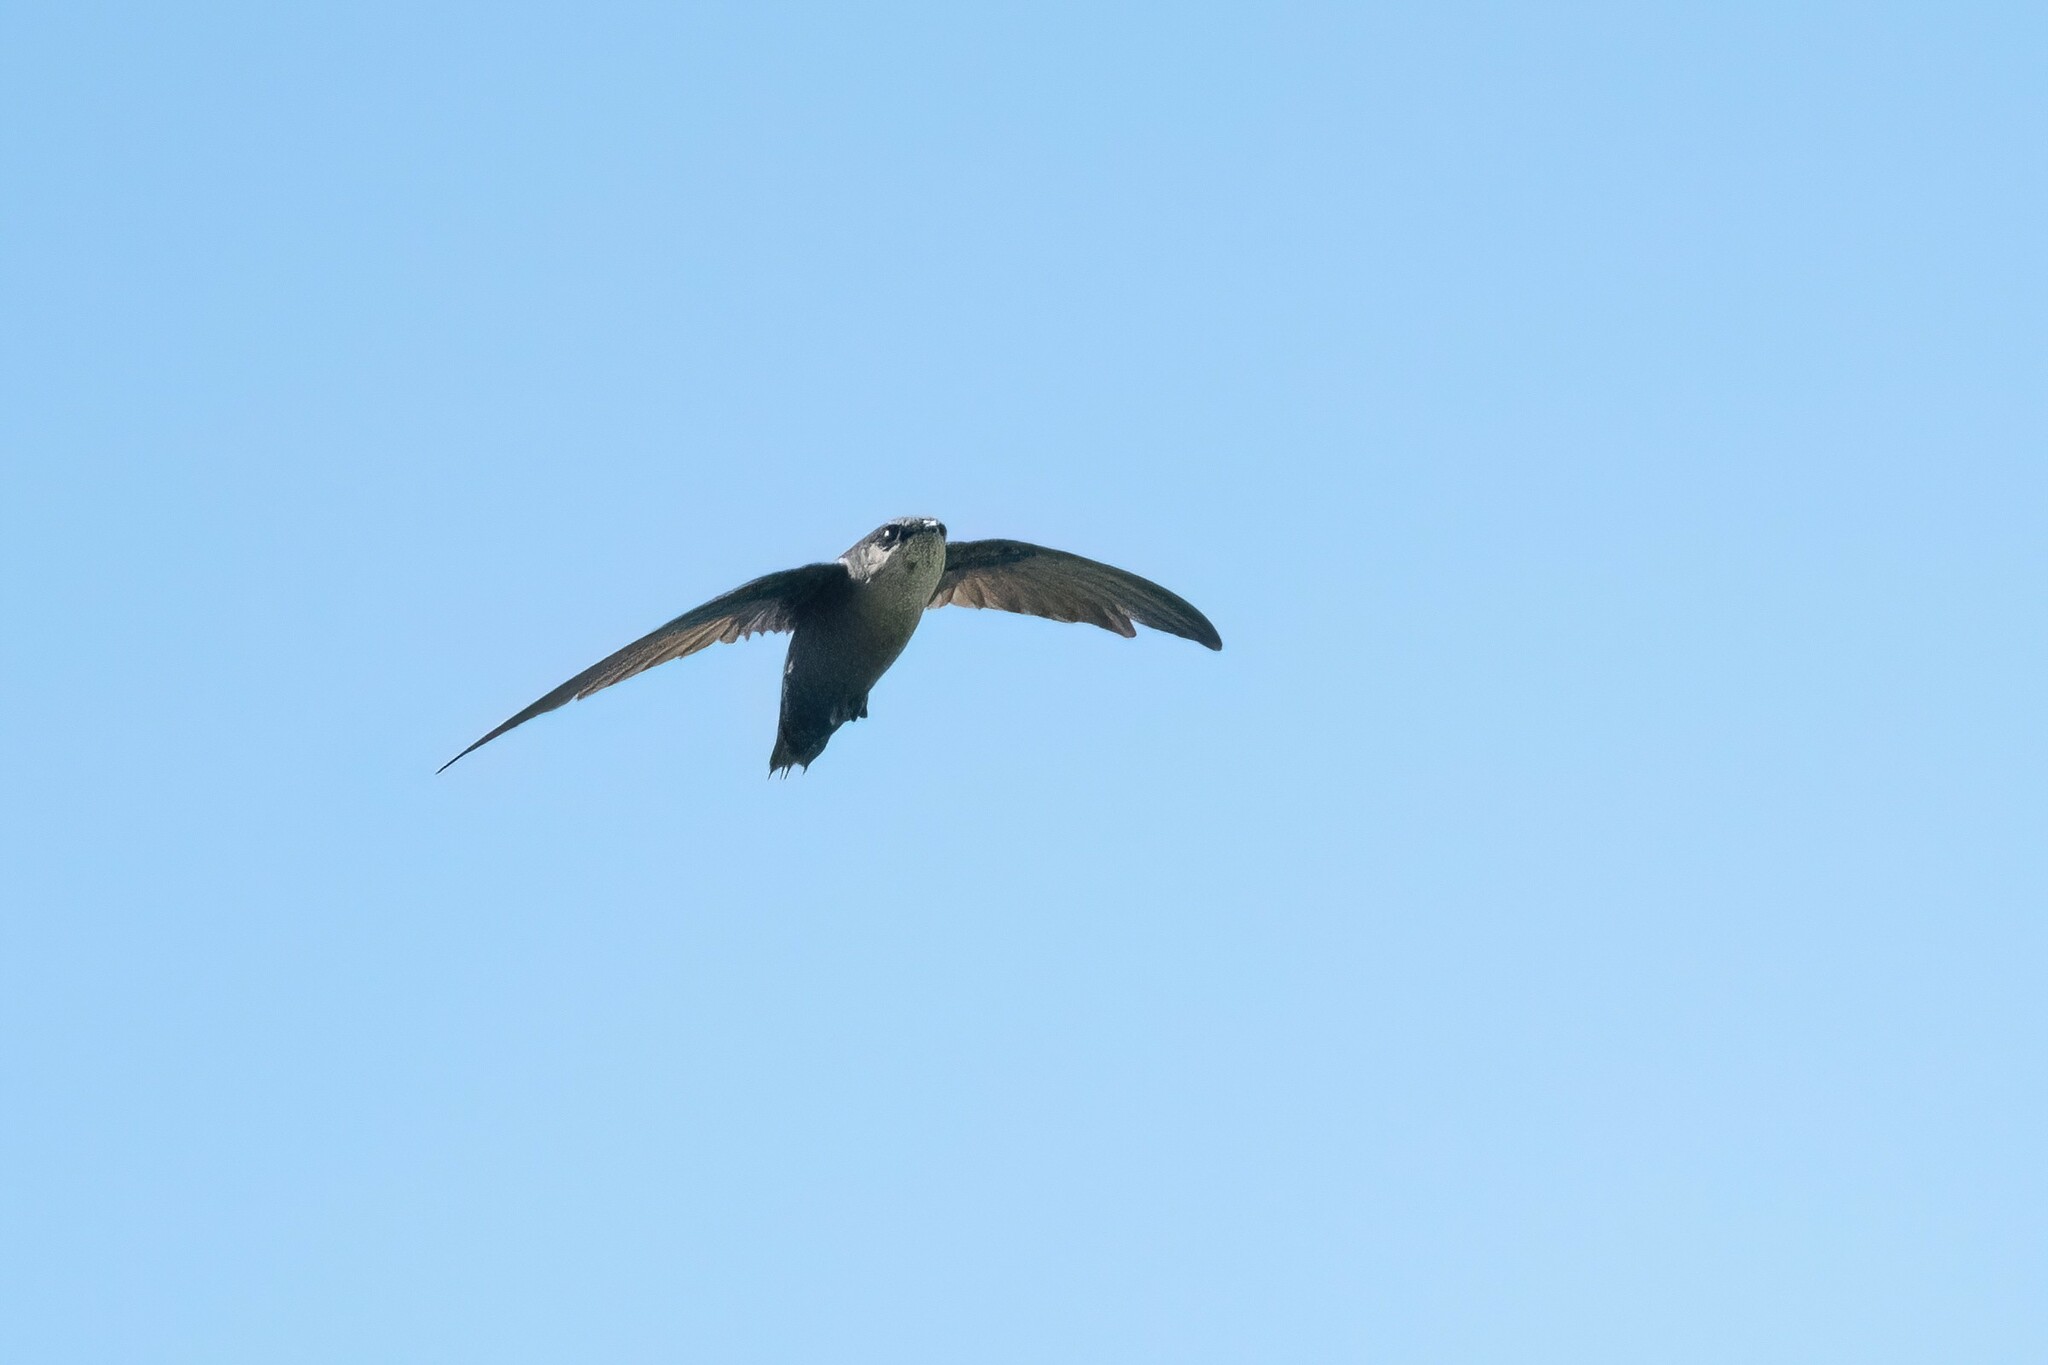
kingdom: Animalia
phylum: Chordata
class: Aves
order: Apodiformes
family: Apodidae
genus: Chaetura
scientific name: Chaetura vauxi
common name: Vaux's swift
